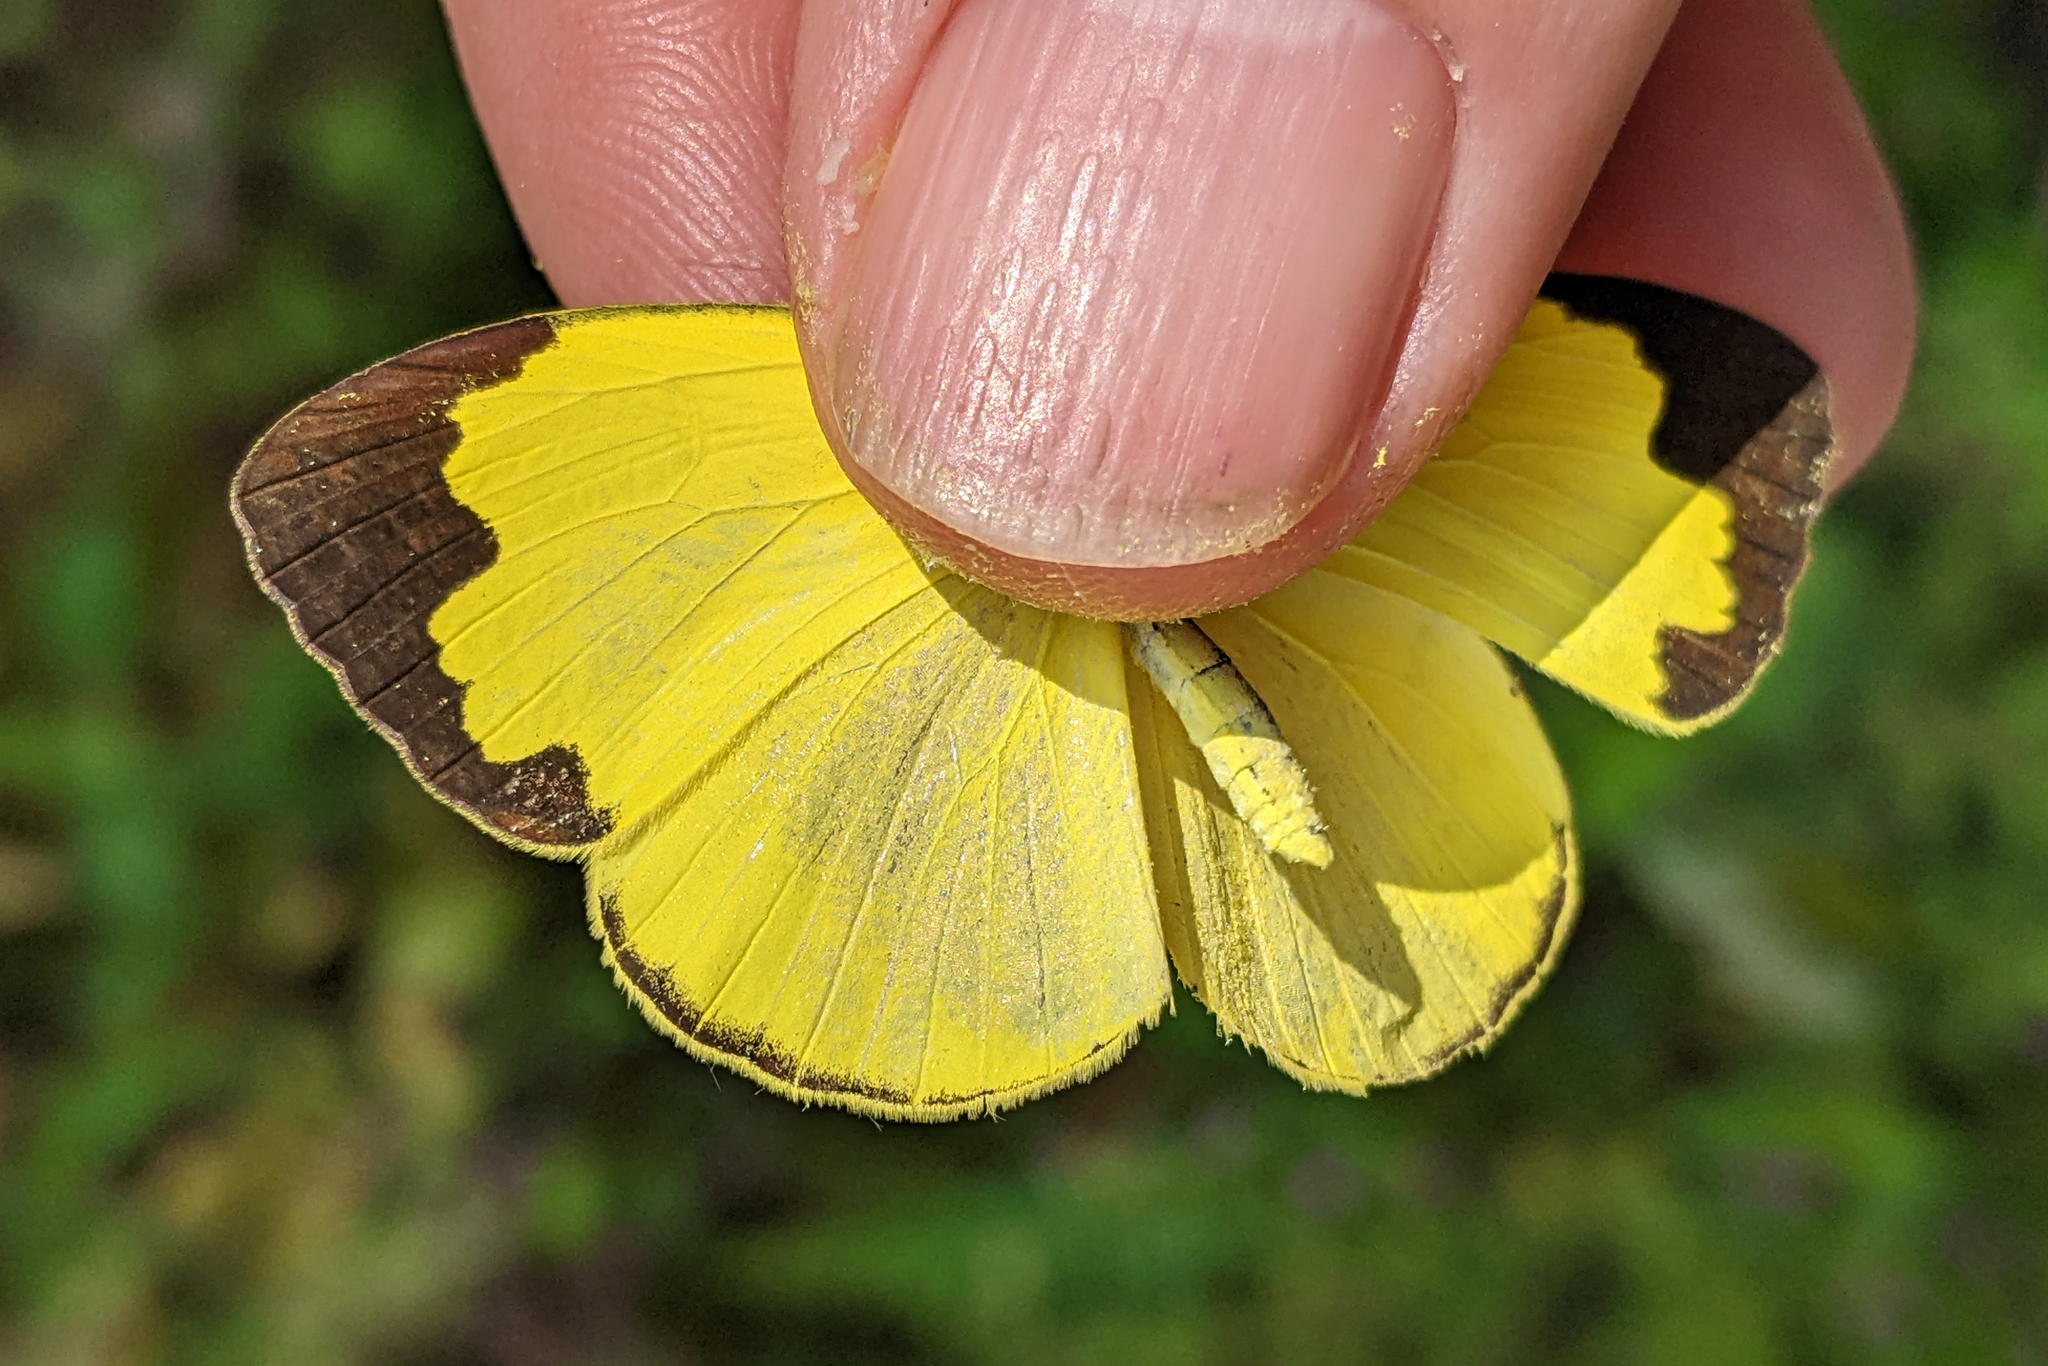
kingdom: Animalia
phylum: Arthropoda
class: Insecta
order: Lepidoptera
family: Pieridae
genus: Eurema
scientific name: Eurema hecabe
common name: Pale grass yellow
